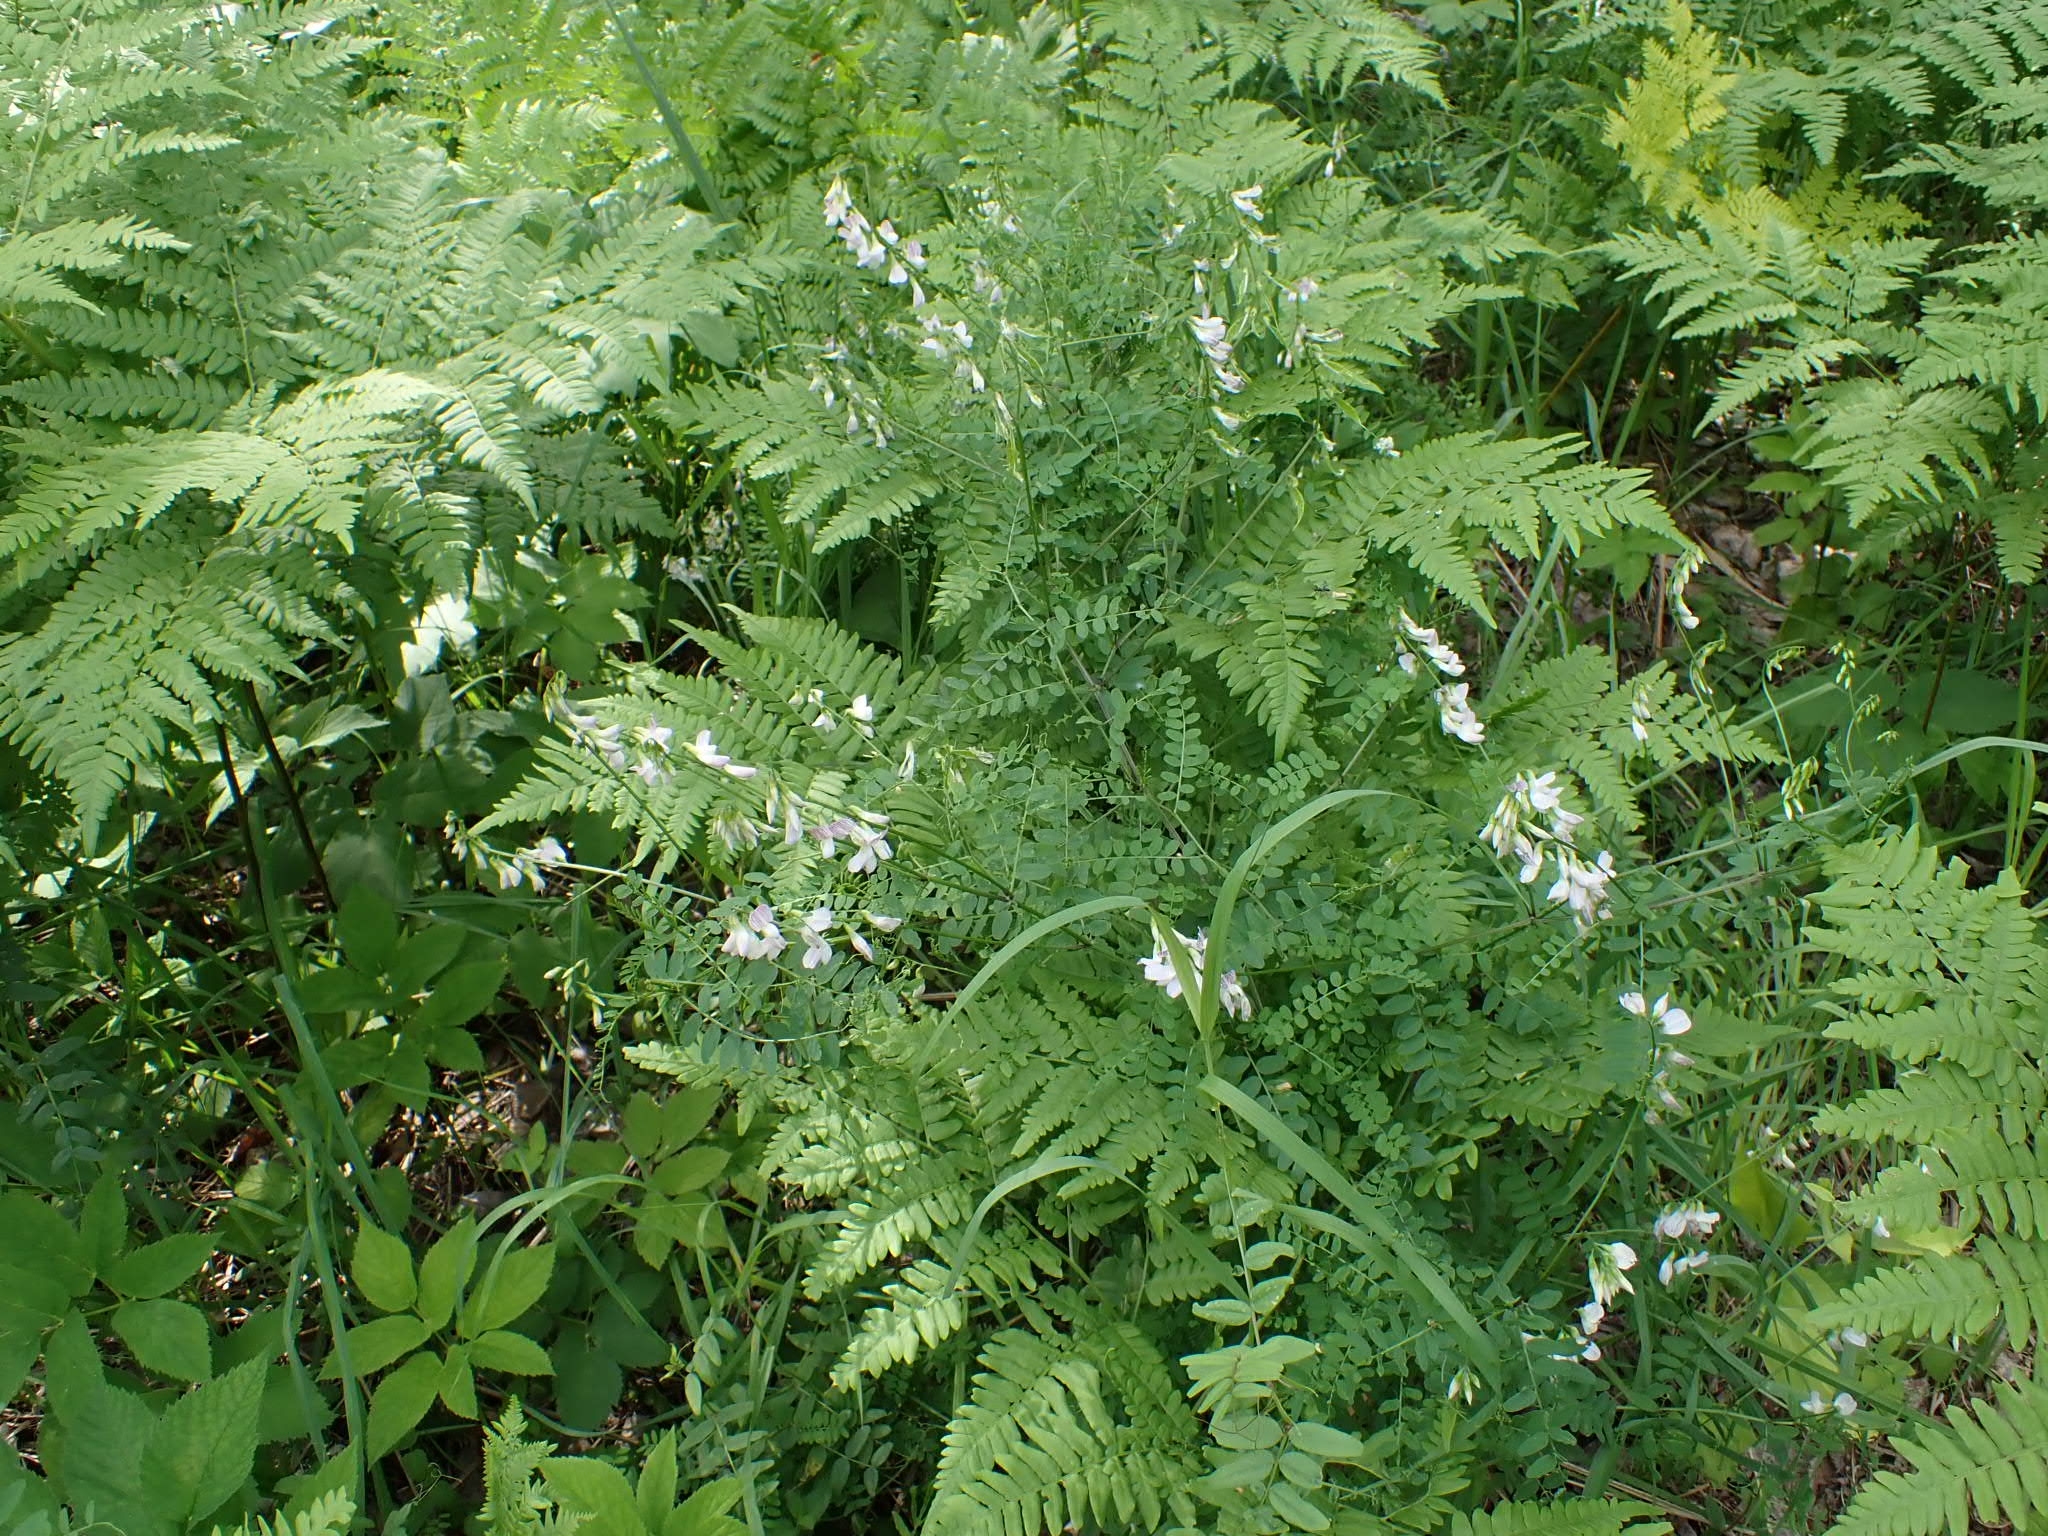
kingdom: Plantae
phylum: Tracheophyta
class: Magnoliopsida
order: Fabales
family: Fabaceae
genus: Vicia
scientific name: Vicia sylvatica
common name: Wood vetch
